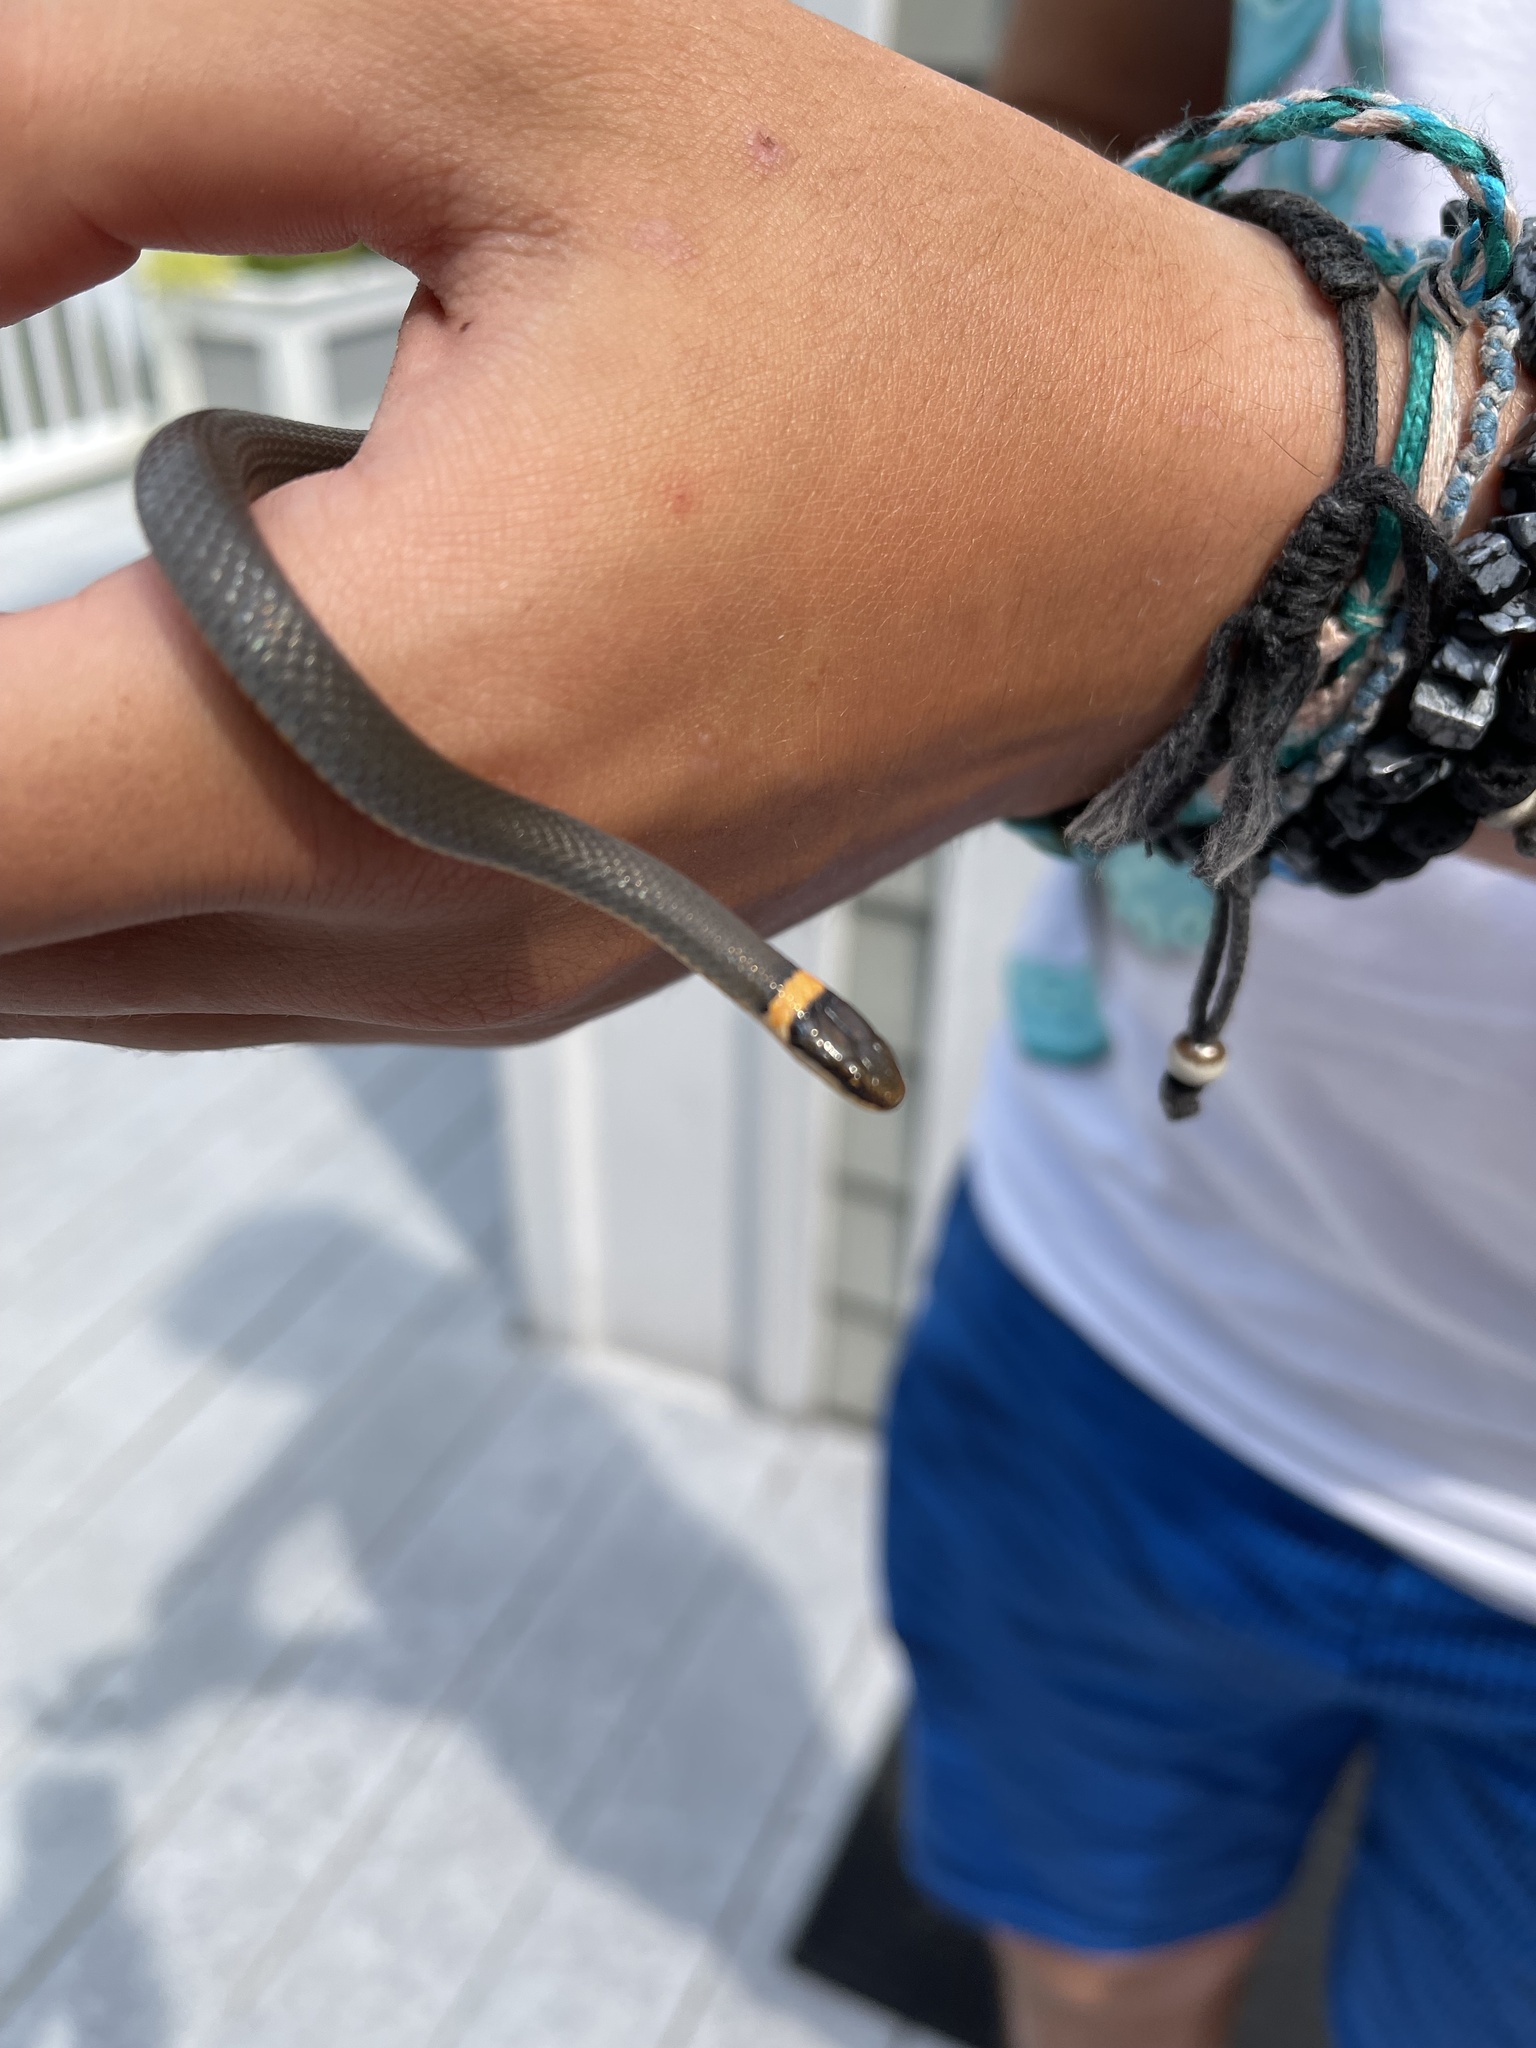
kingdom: Animalia
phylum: Chordata
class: Squamata
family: Colubridae
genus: Diadophis
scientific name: Diadophis punctatus
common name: Ringneck snake
